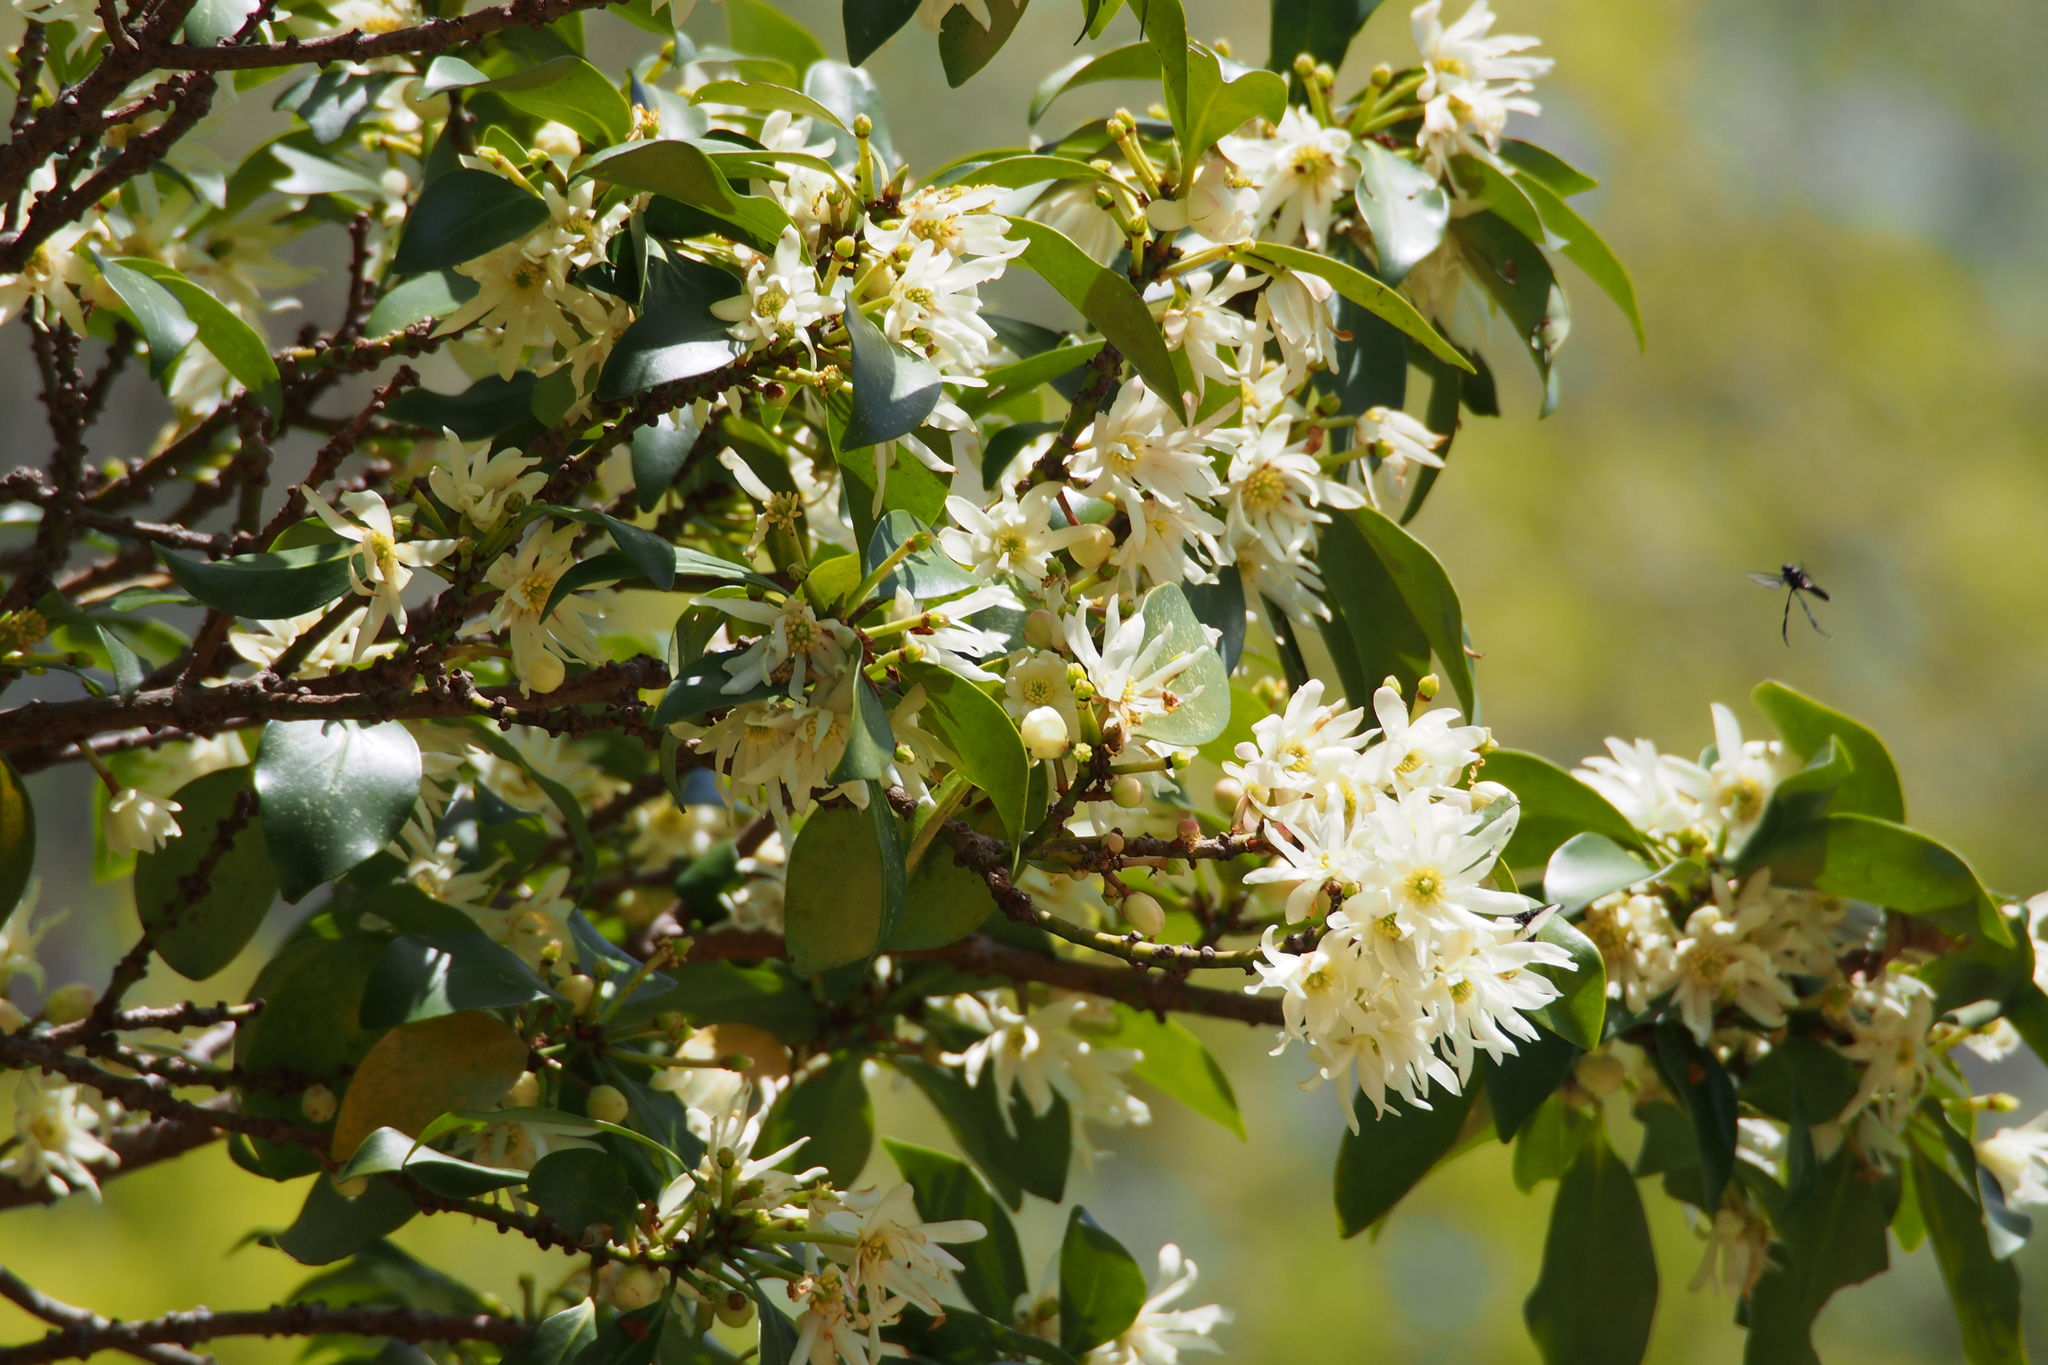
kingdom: Plantae
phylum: Tracheophyta
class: Magnoliopsida
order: Austrobaileyales
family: Schisandraceae
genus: Illicium
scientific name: Illicium anisatum
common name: Sacred anisetree
